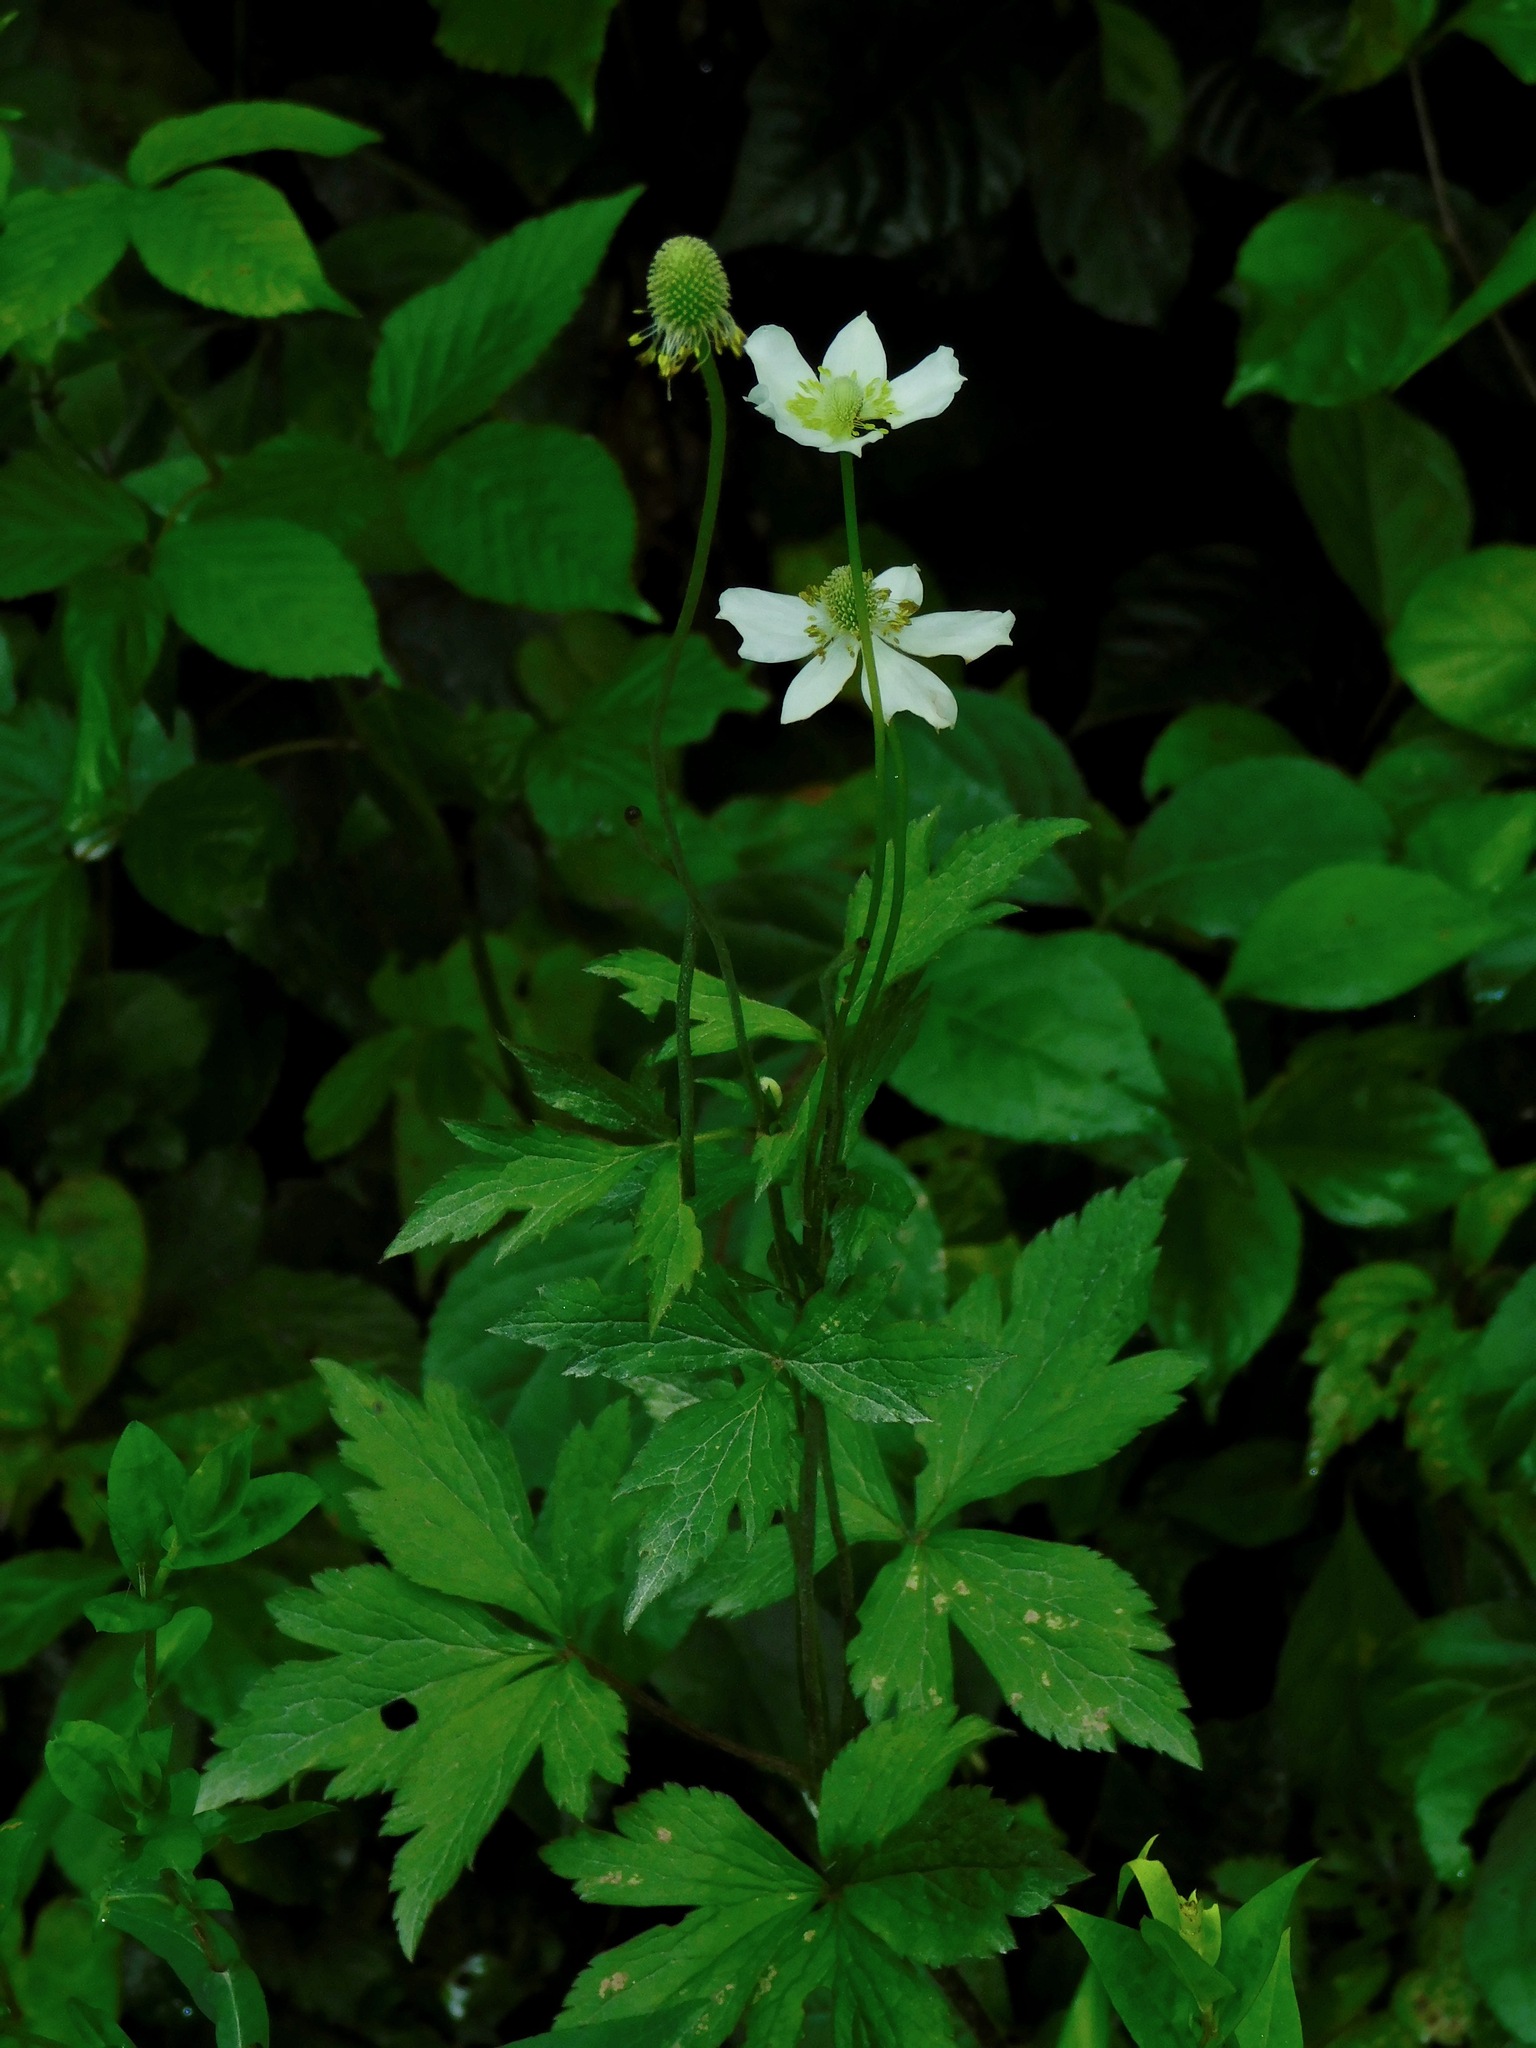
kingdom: Plantae
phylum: Tracheophyta
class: Magnoliopsida
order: Ranunculales
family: Ranunculaceae
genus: Anemone
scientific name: Anemone virginiana
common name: Tall anemone
